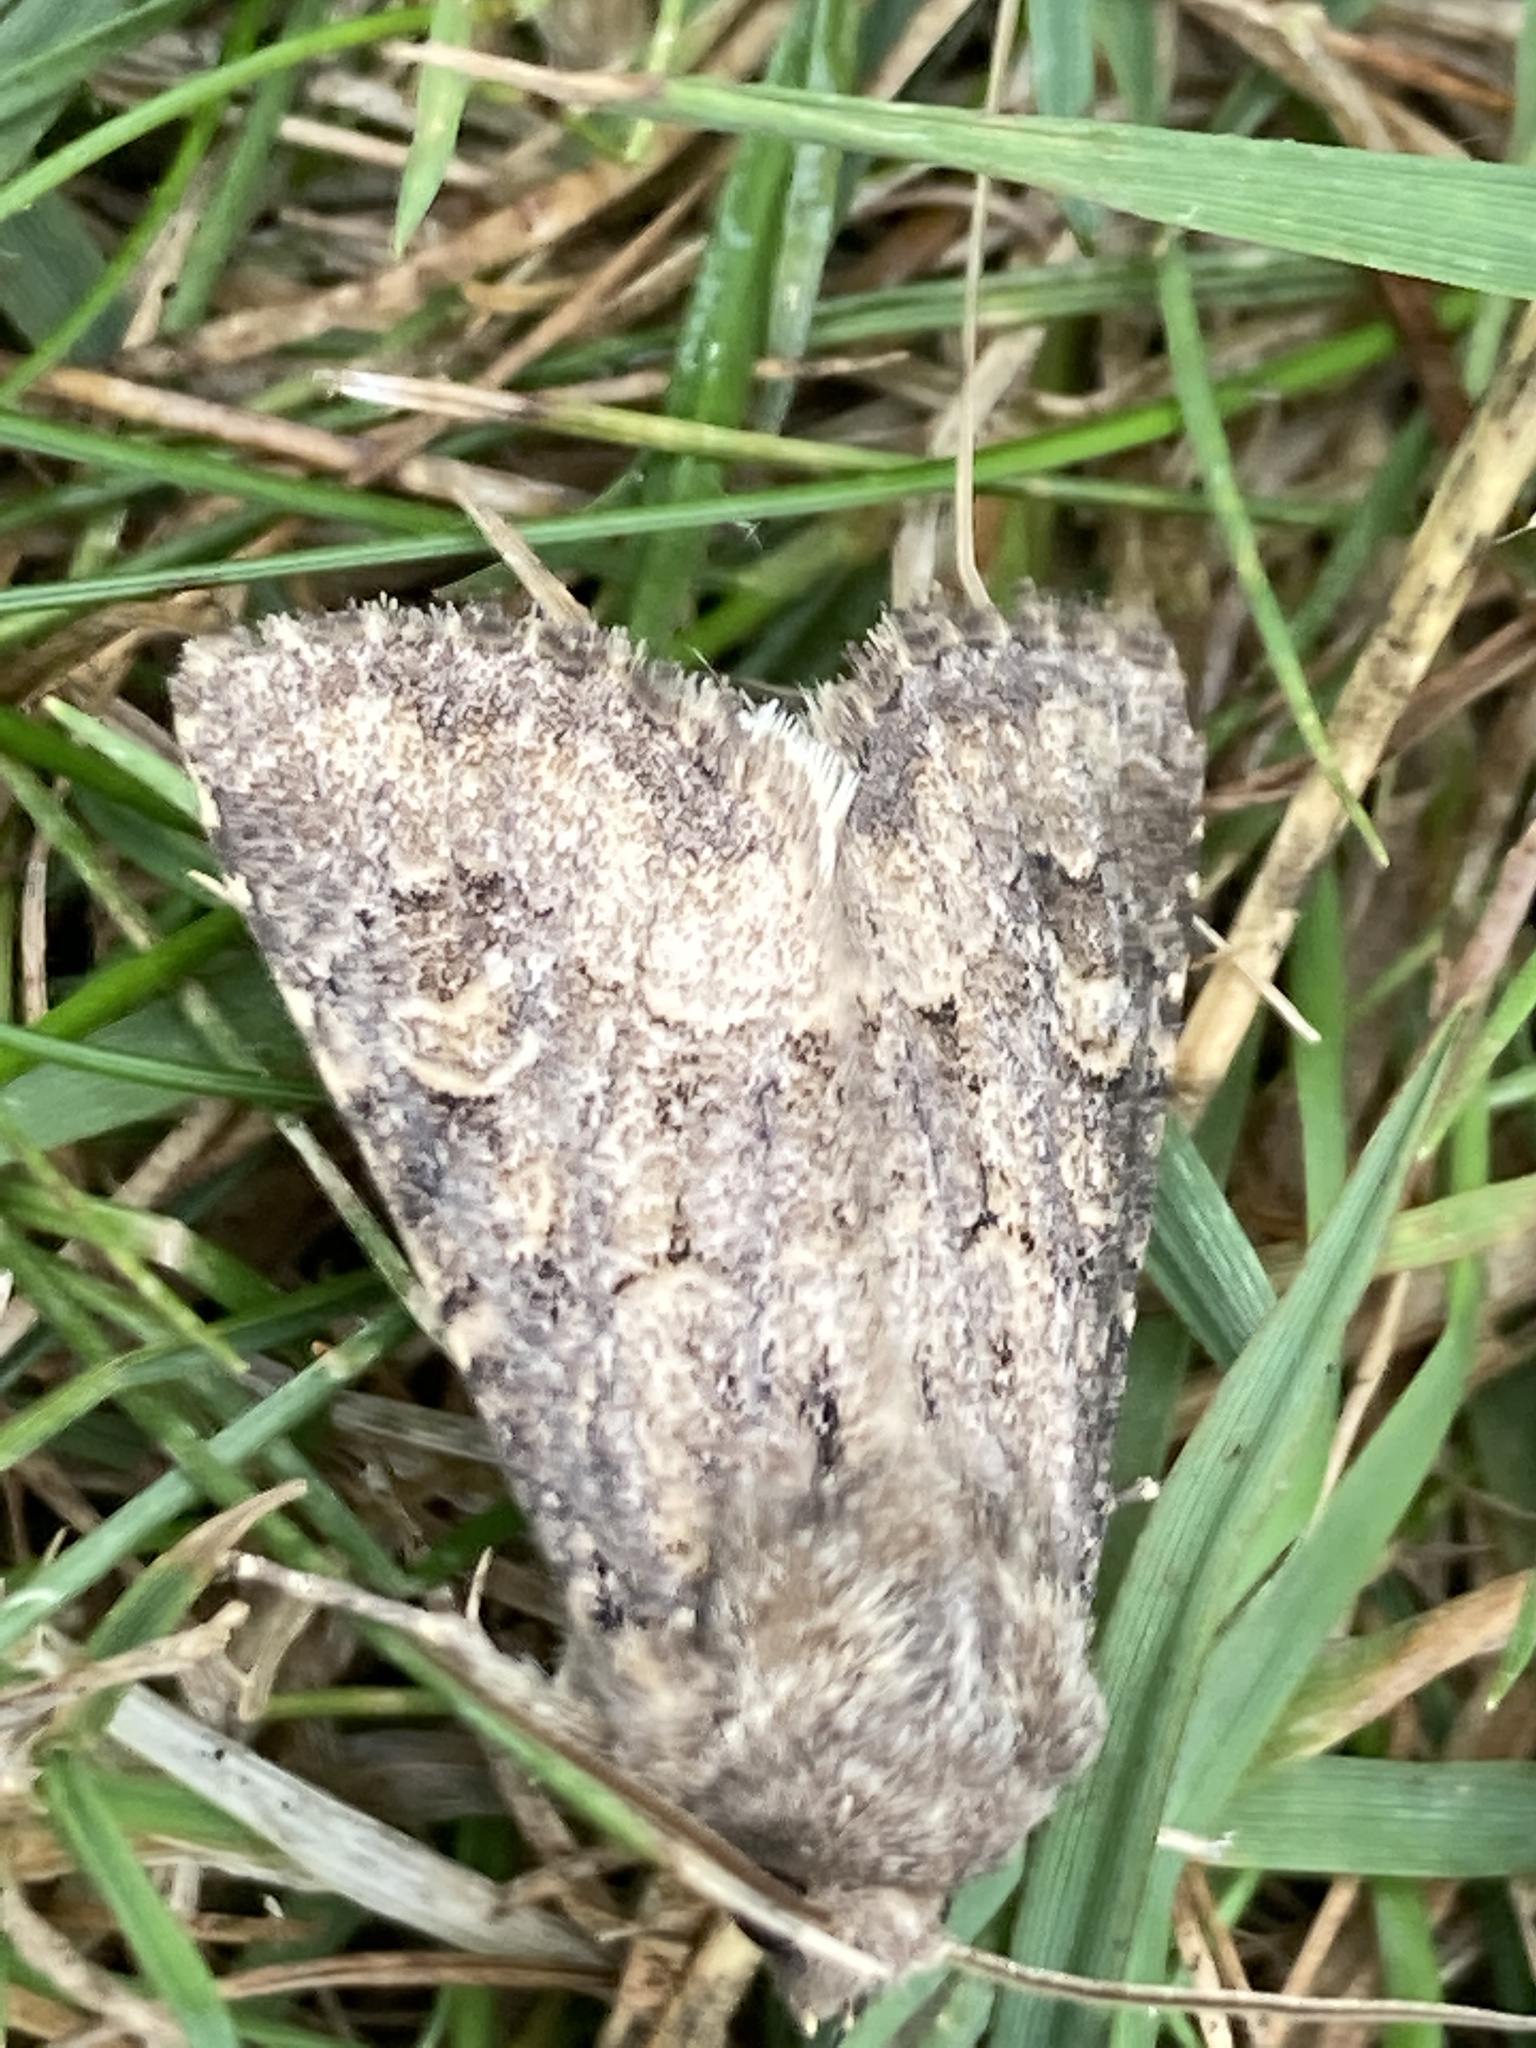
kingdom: Animalia
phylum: Arthropoda
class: Insecta
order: Lepidoptera
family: Noctuidae
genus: Luperina
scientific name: Luperina testacea
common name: Flounced rustic
